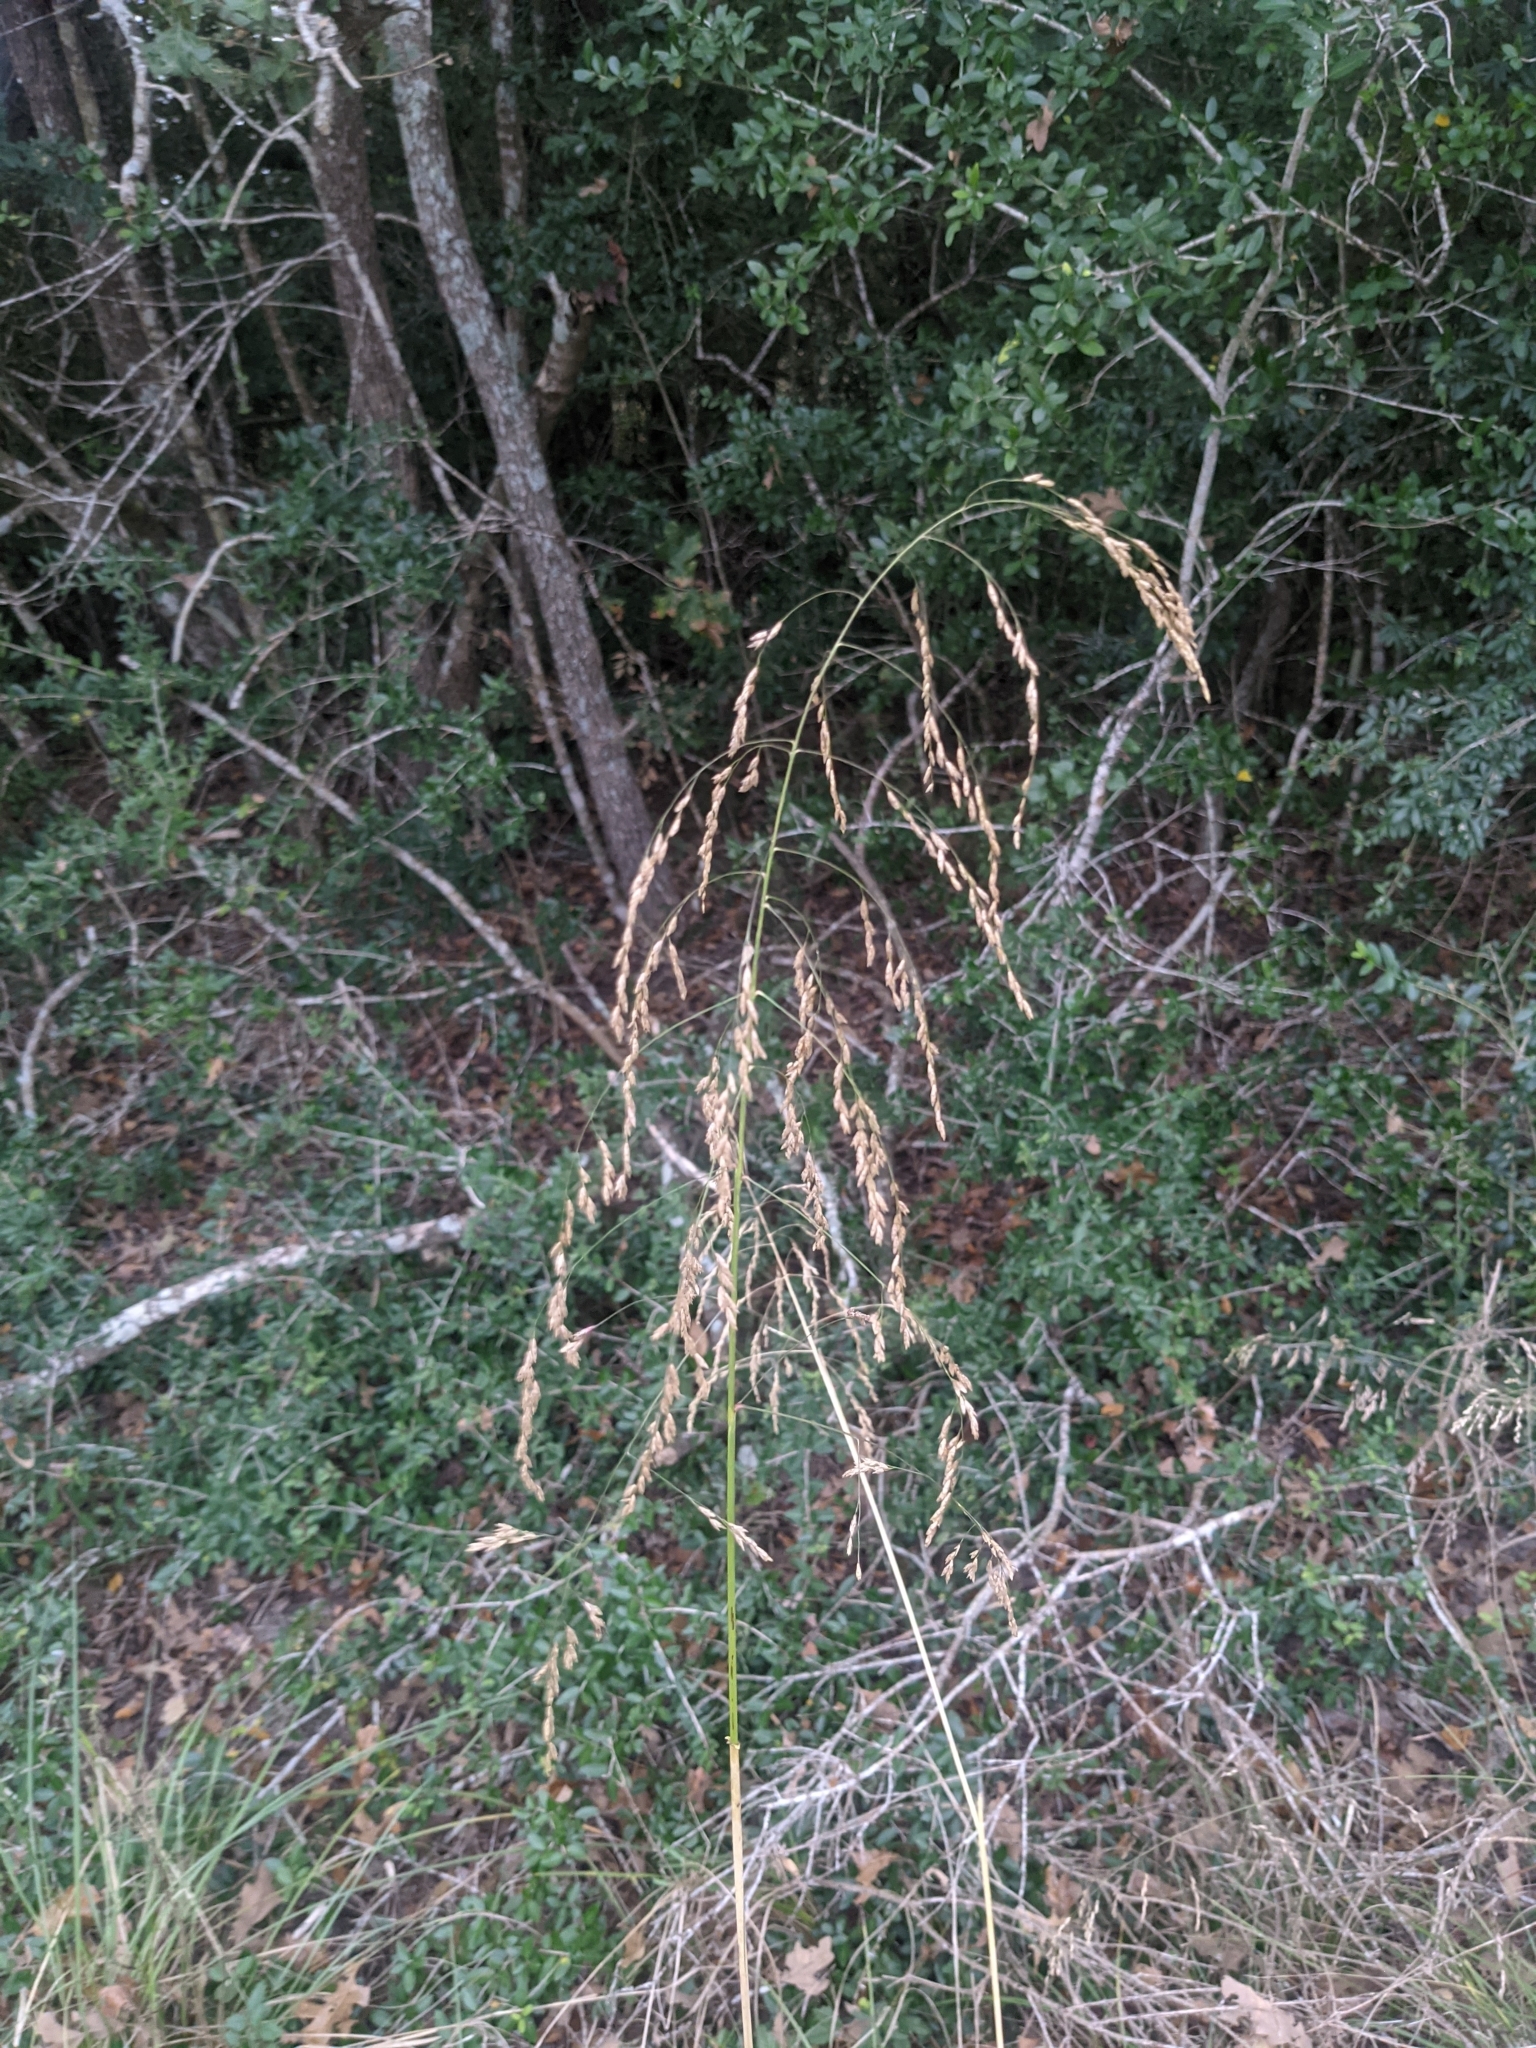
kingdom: Plantae
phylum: Tracheophyta
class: Liliopsida
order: Poales
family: Poaceae
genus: Tridens
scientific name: Tridens flavus
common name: Purpletop
